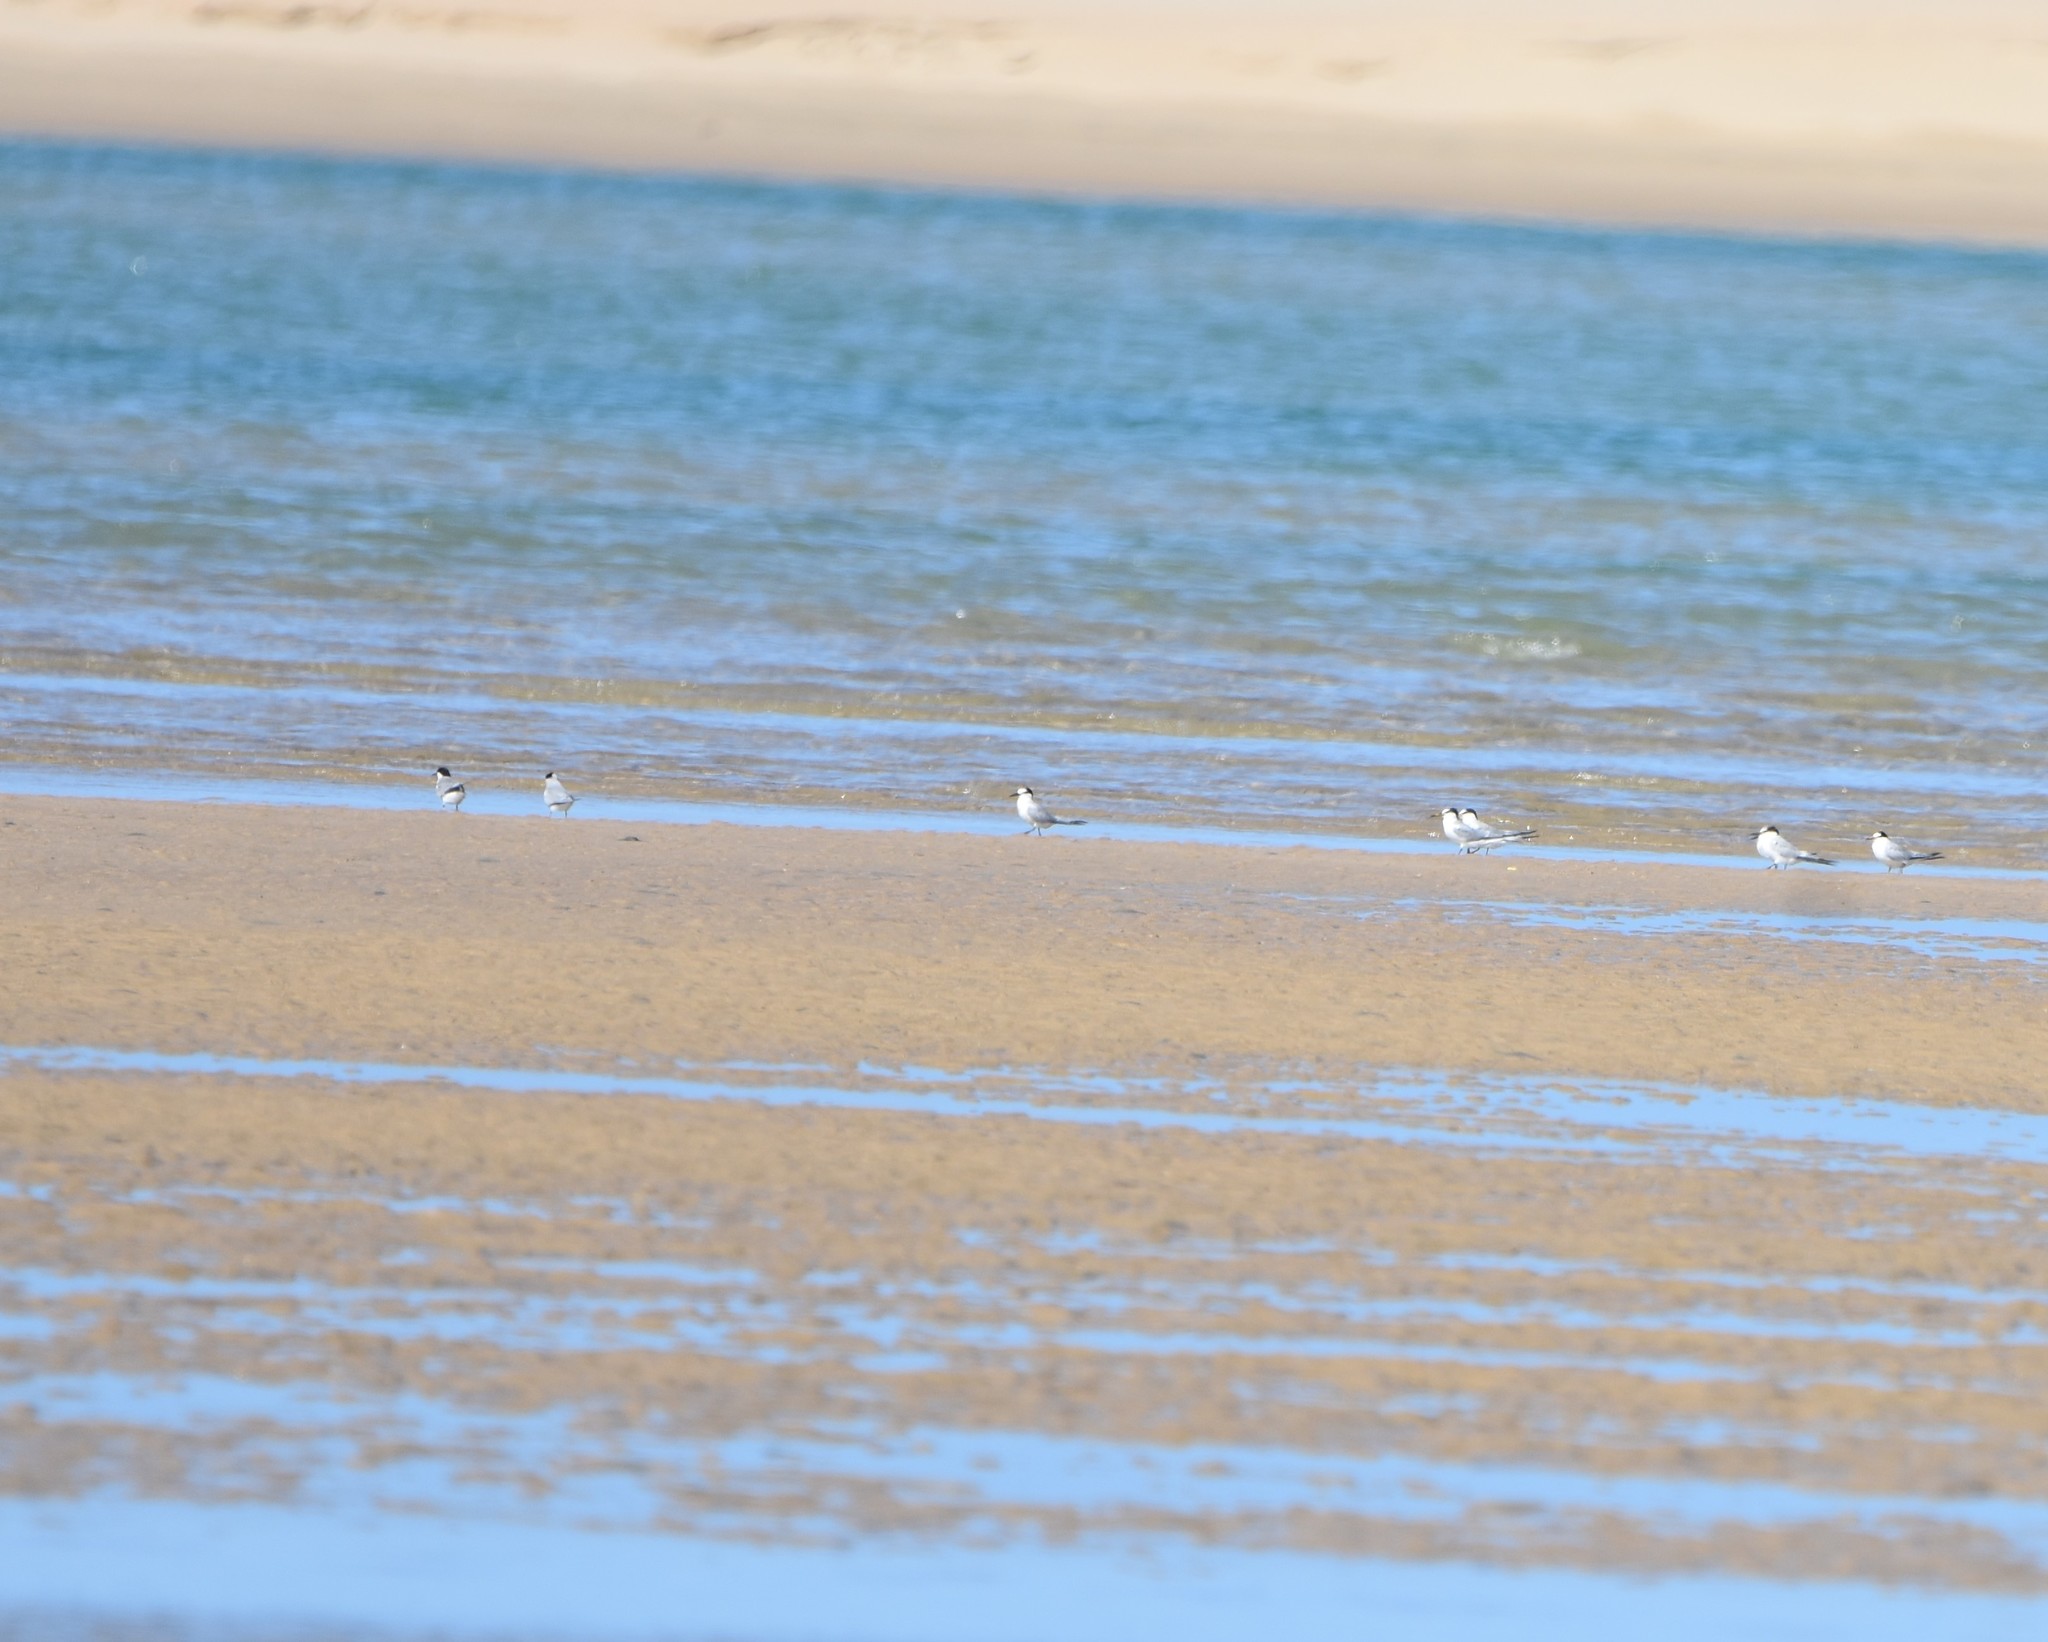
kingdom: Animalia
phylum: Chordata
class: Aves
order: Charadriiformes
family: Laridae
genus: Sternula
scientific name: Sternula albifrons
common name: Little tern
